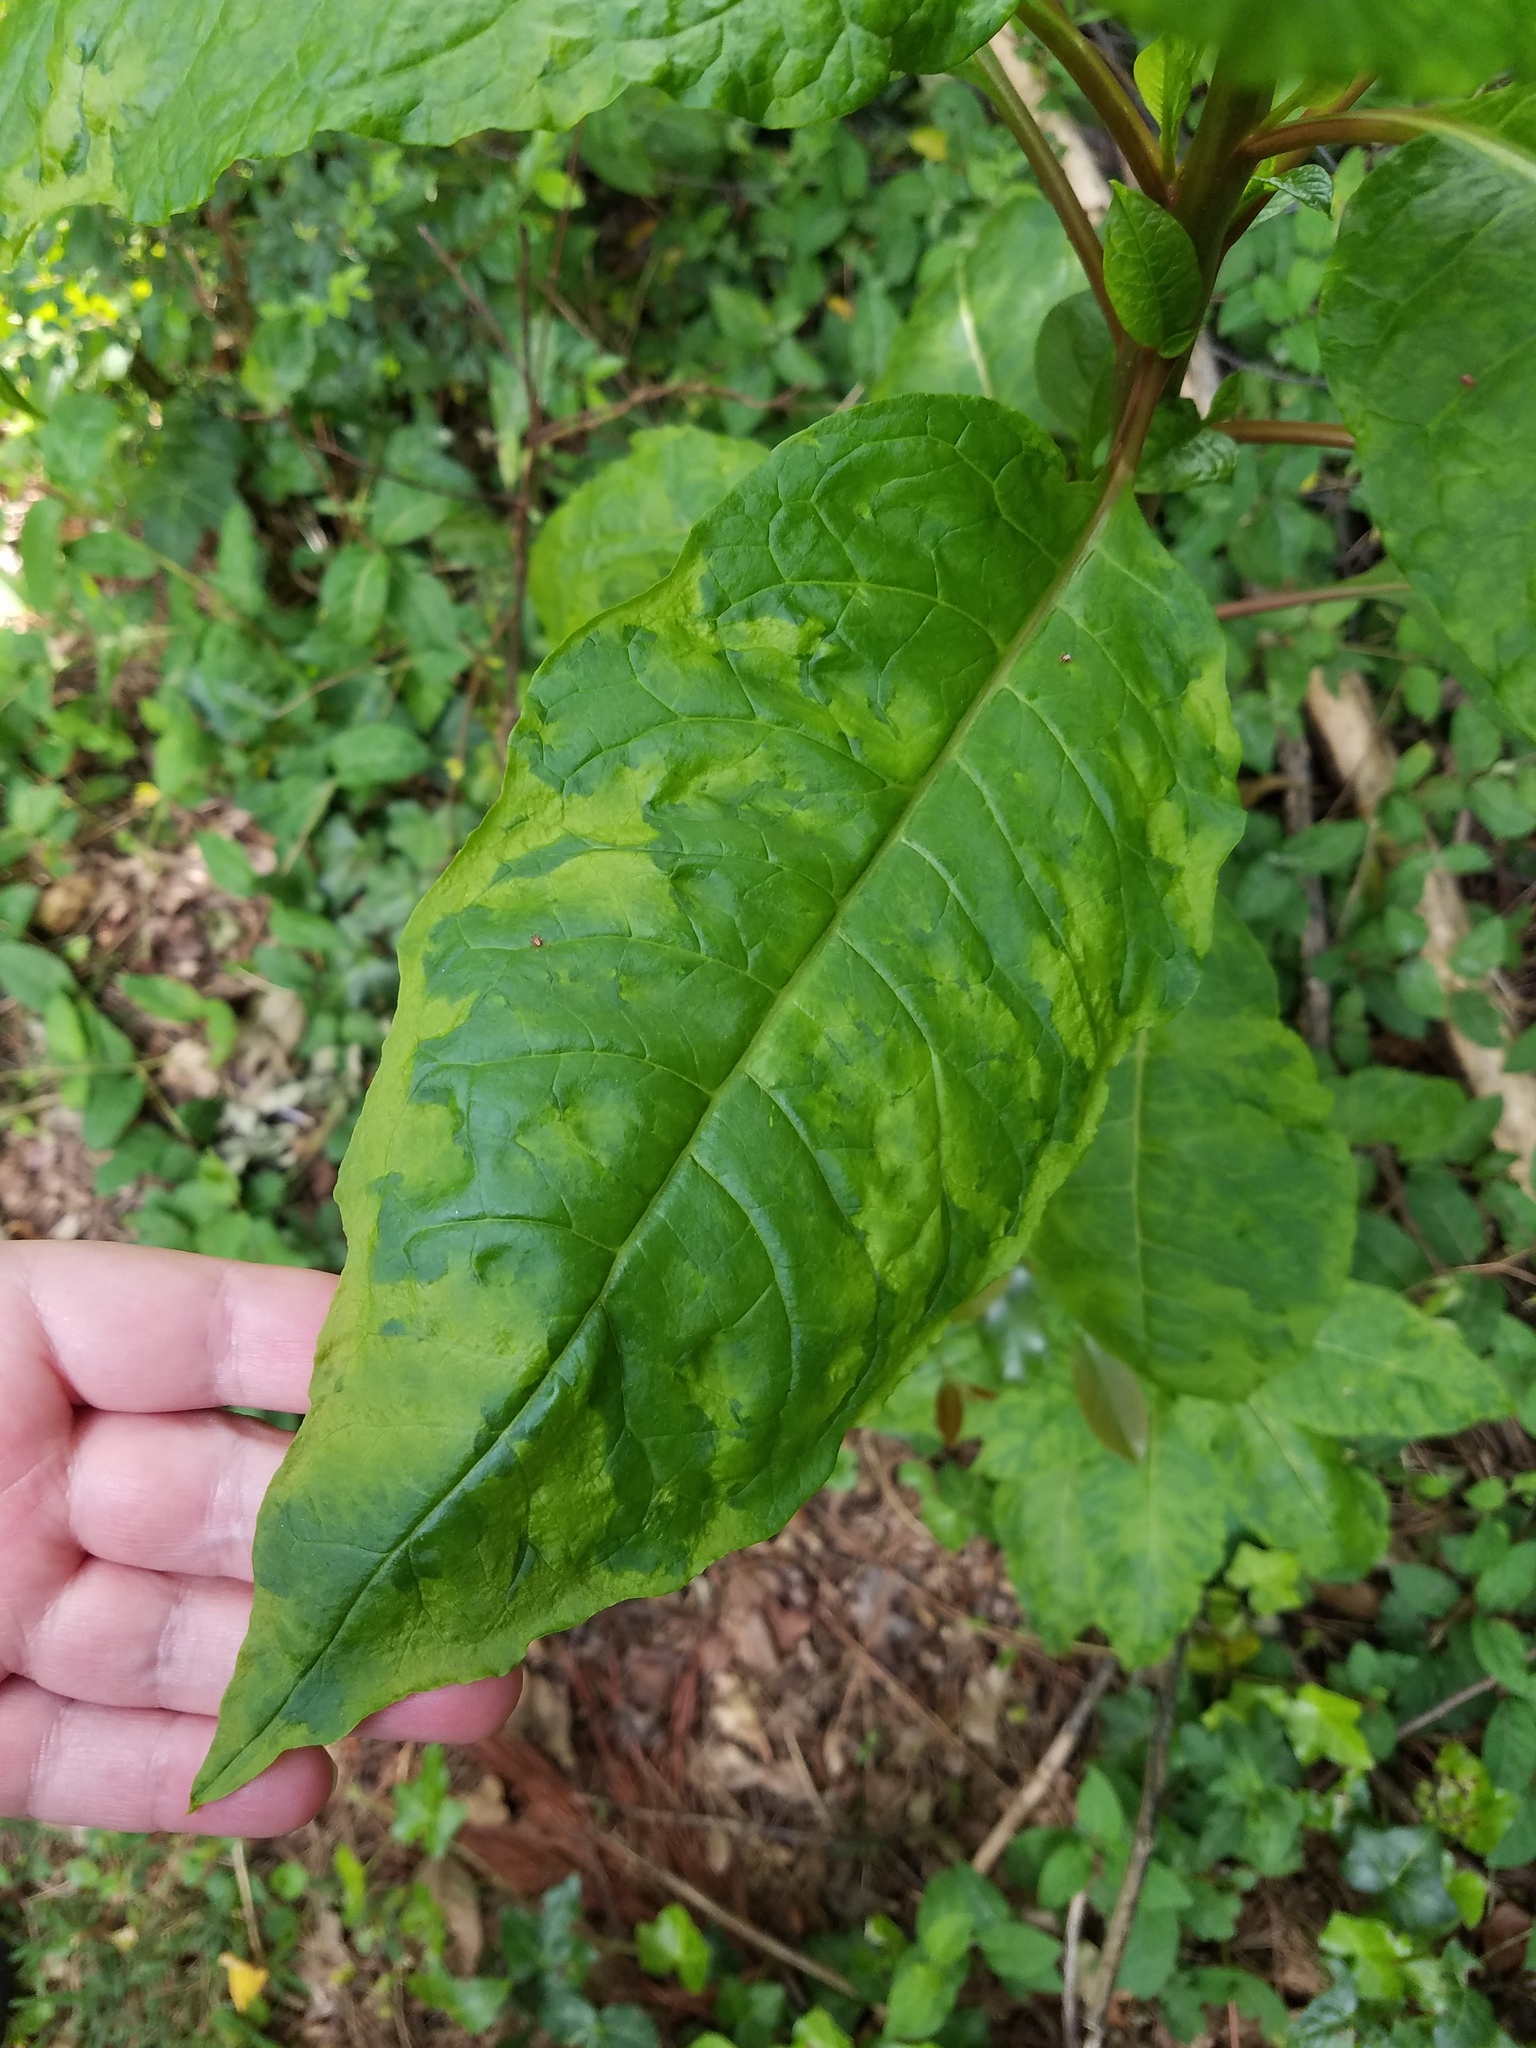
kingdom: Viruses
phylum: Pisuviricota
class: Stelpaviricetes
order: Patatavirales
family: Potyviridae
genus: Potyvirus
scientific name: Potyvirus Pokeweed mosaic virus
